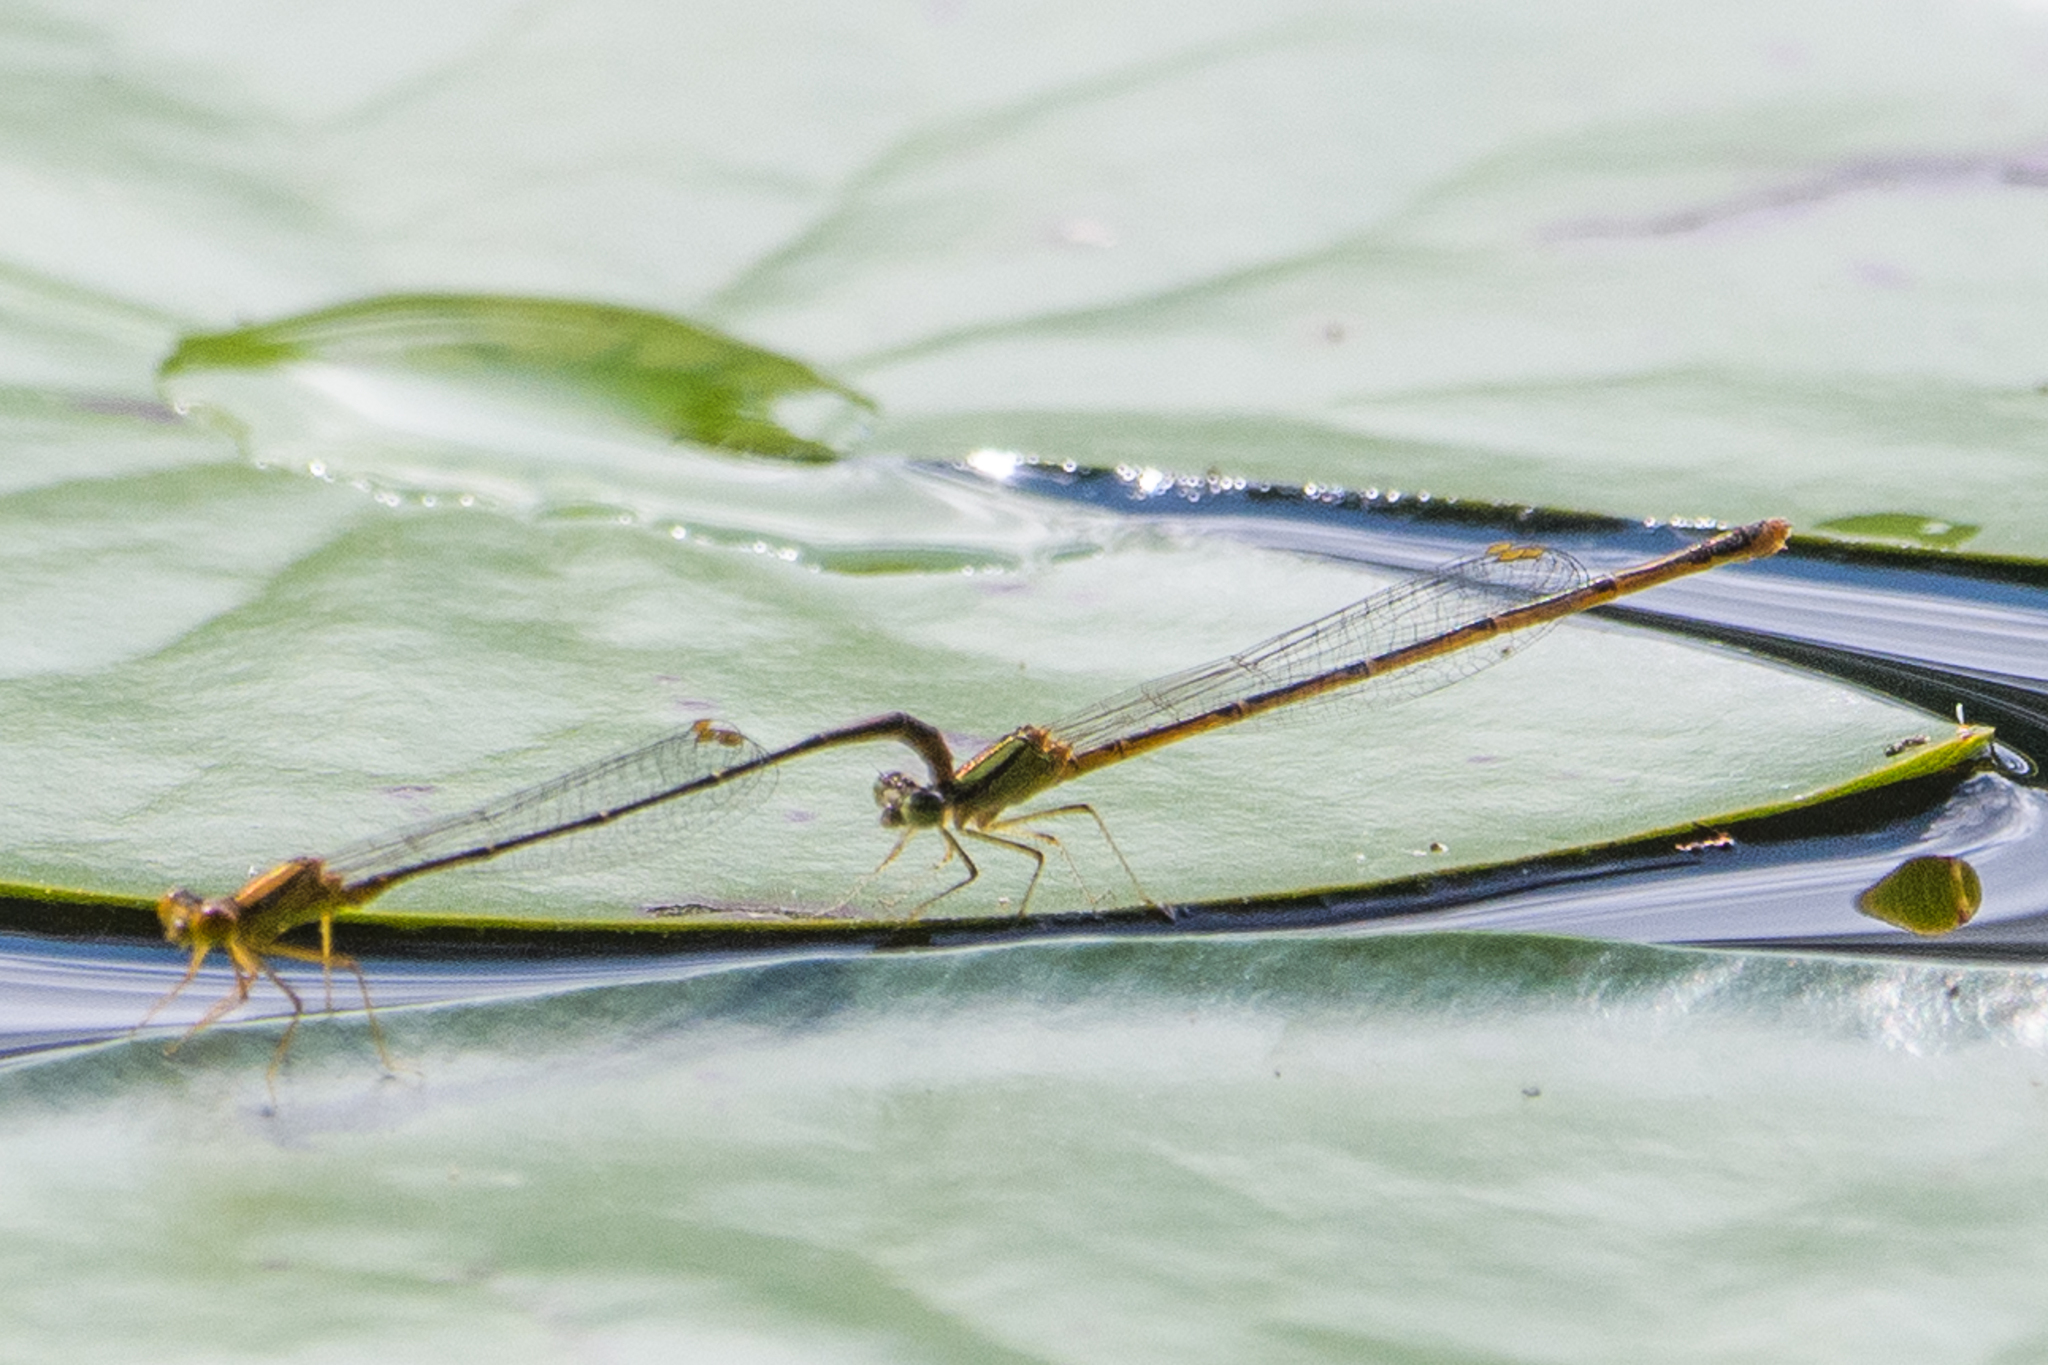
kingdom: Animalia
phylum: Arthropoda
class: Insecta
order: Odonata
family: Coenagrionidae
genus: Enallagma
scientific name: Enallagma signatum
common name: Orange bluet
